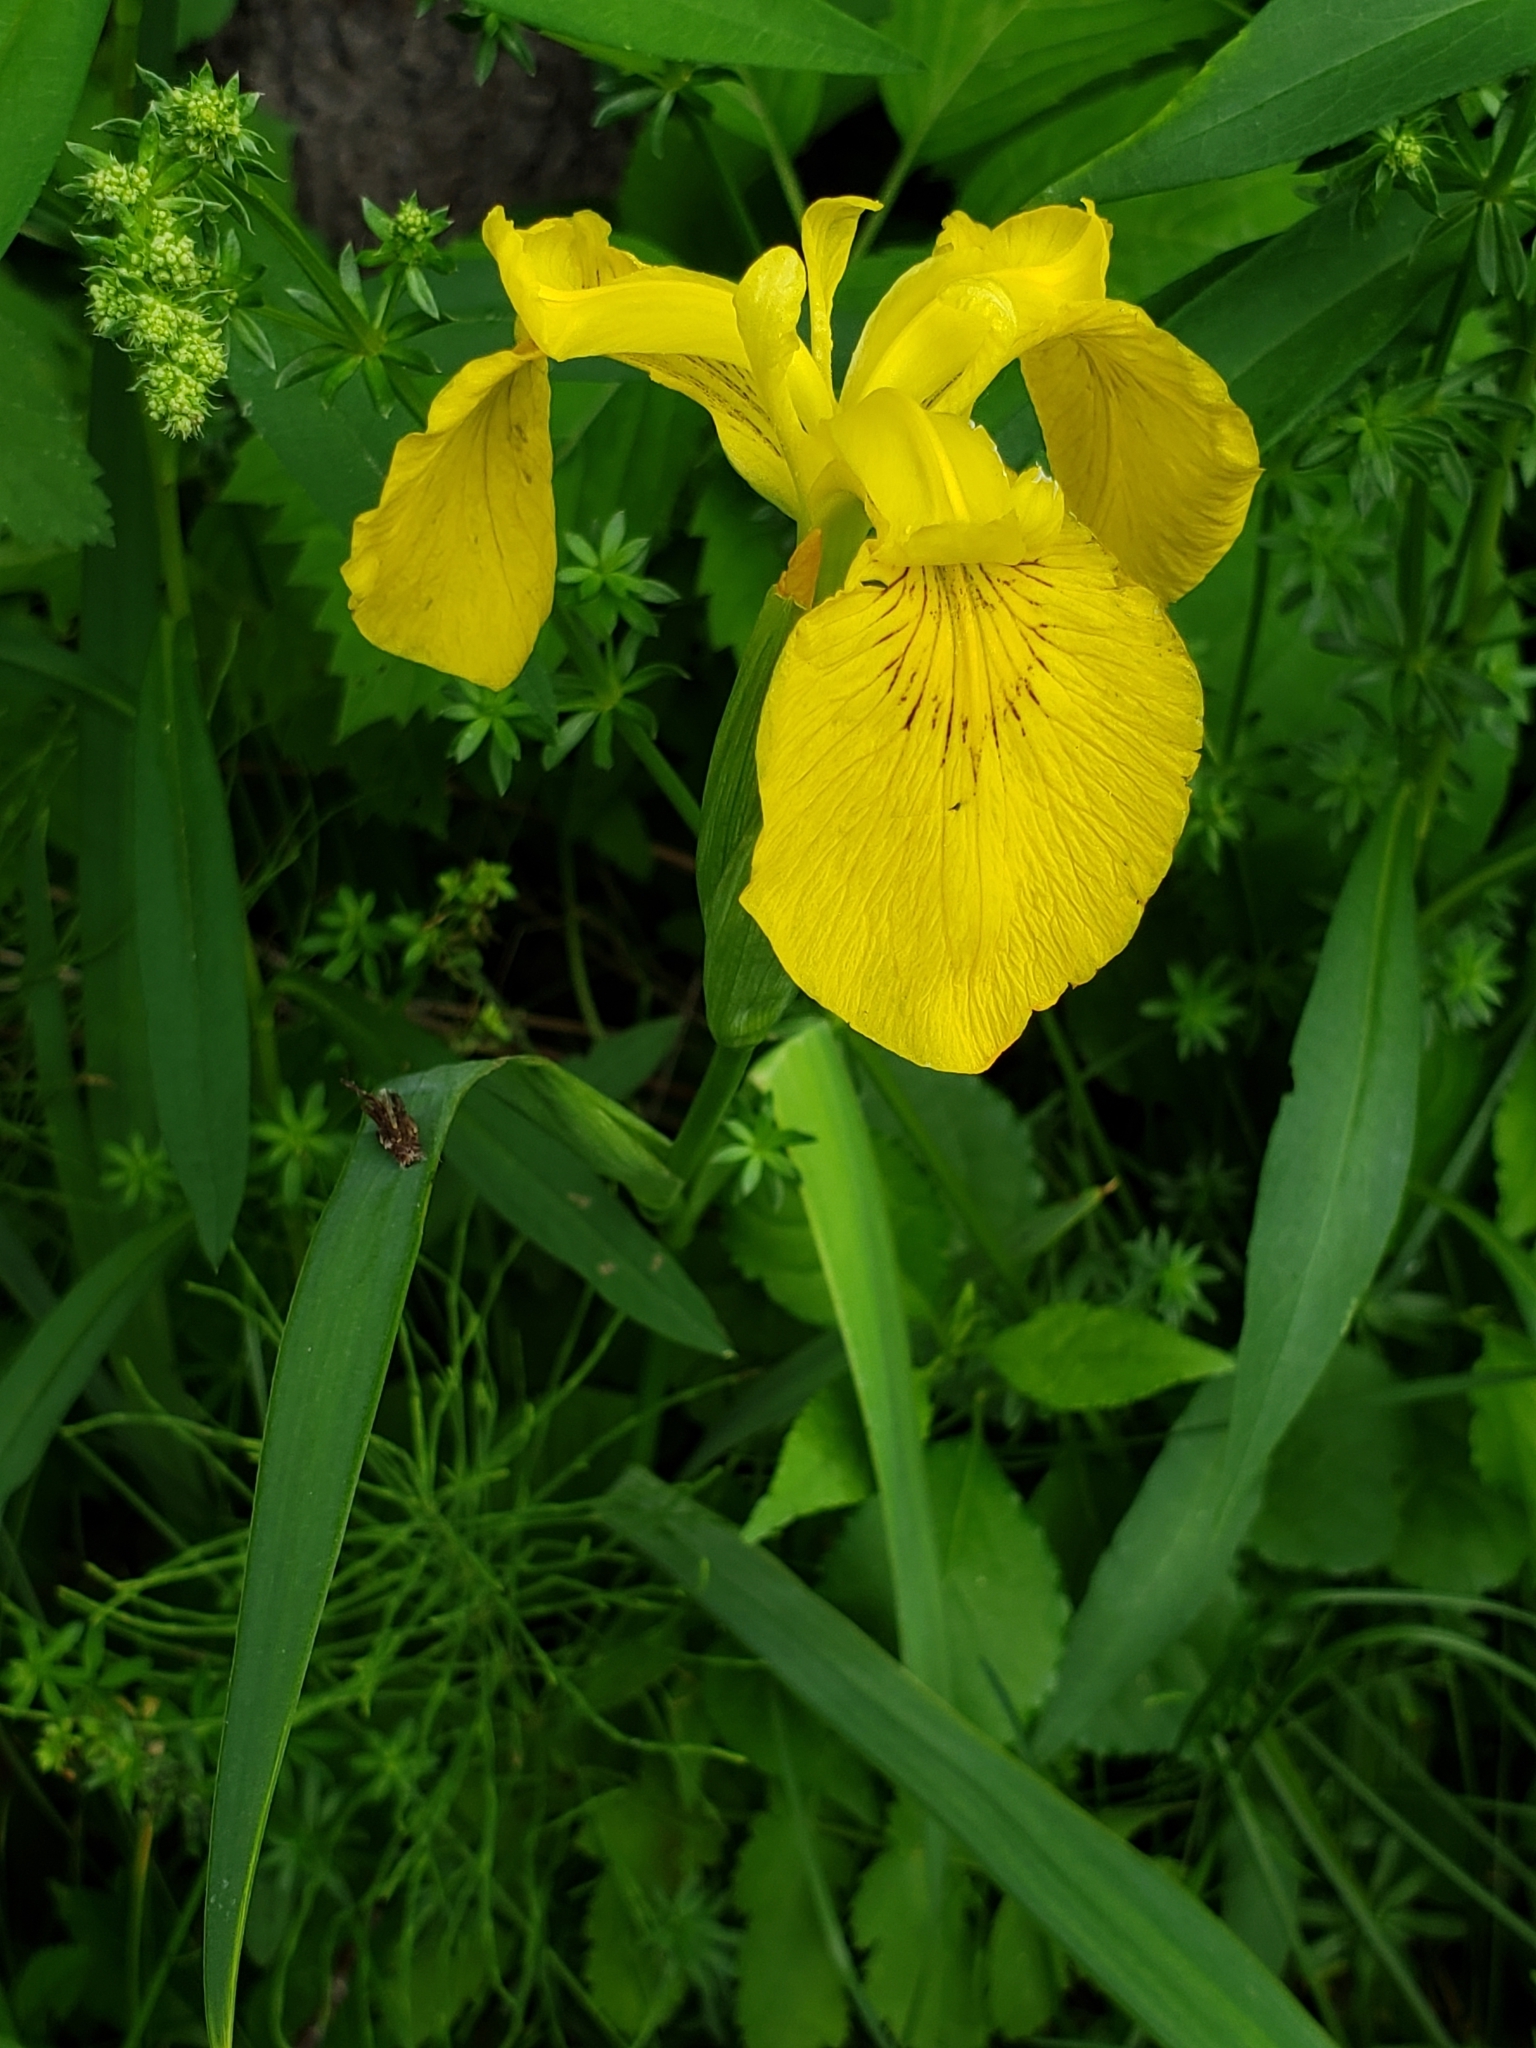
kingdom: Plantae
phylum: Tracheophyta
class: Liliopsida
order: Asparagales
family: Iridaceae
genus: Iris
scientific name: Iris pseudacorus
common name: Yellow flag
